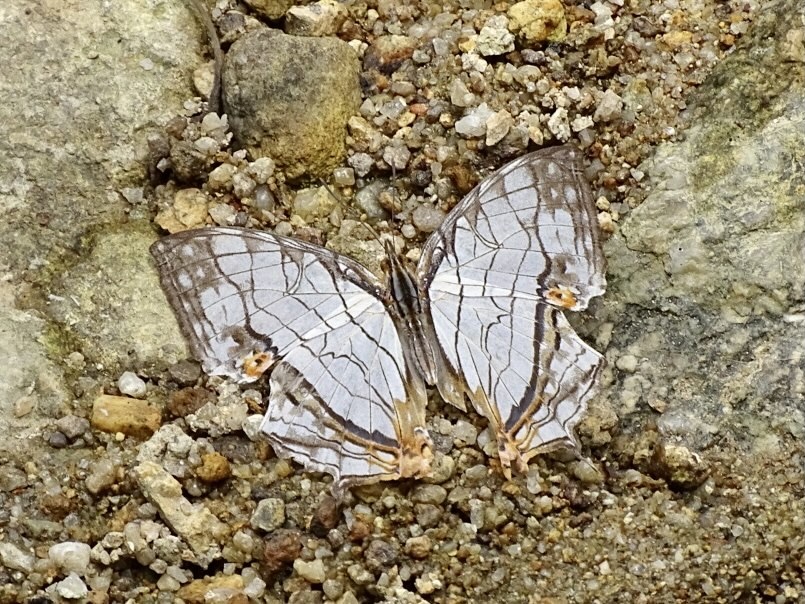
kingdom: Animalia
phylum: Arthropoda
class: Insecta
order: Lepidoptera
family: Nymphalidae
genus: Cyrestis
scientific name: Cyrestis thyodamas
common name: Common mapwing
